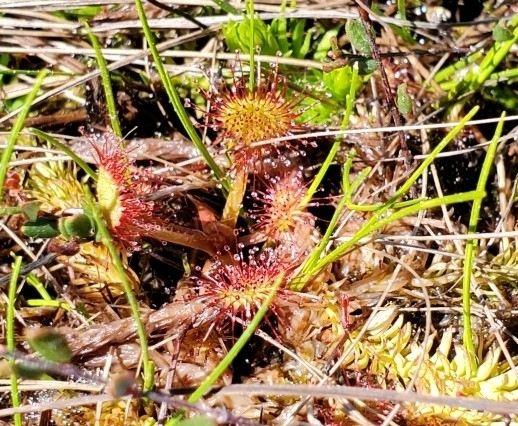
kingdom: Plantae
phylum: Tracheophyta
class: Magnoliopsida
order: Caryophyllales
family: Droseraceae
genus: Drosera
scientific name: Drosera rotundifolia
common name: Round-leaved sundew
